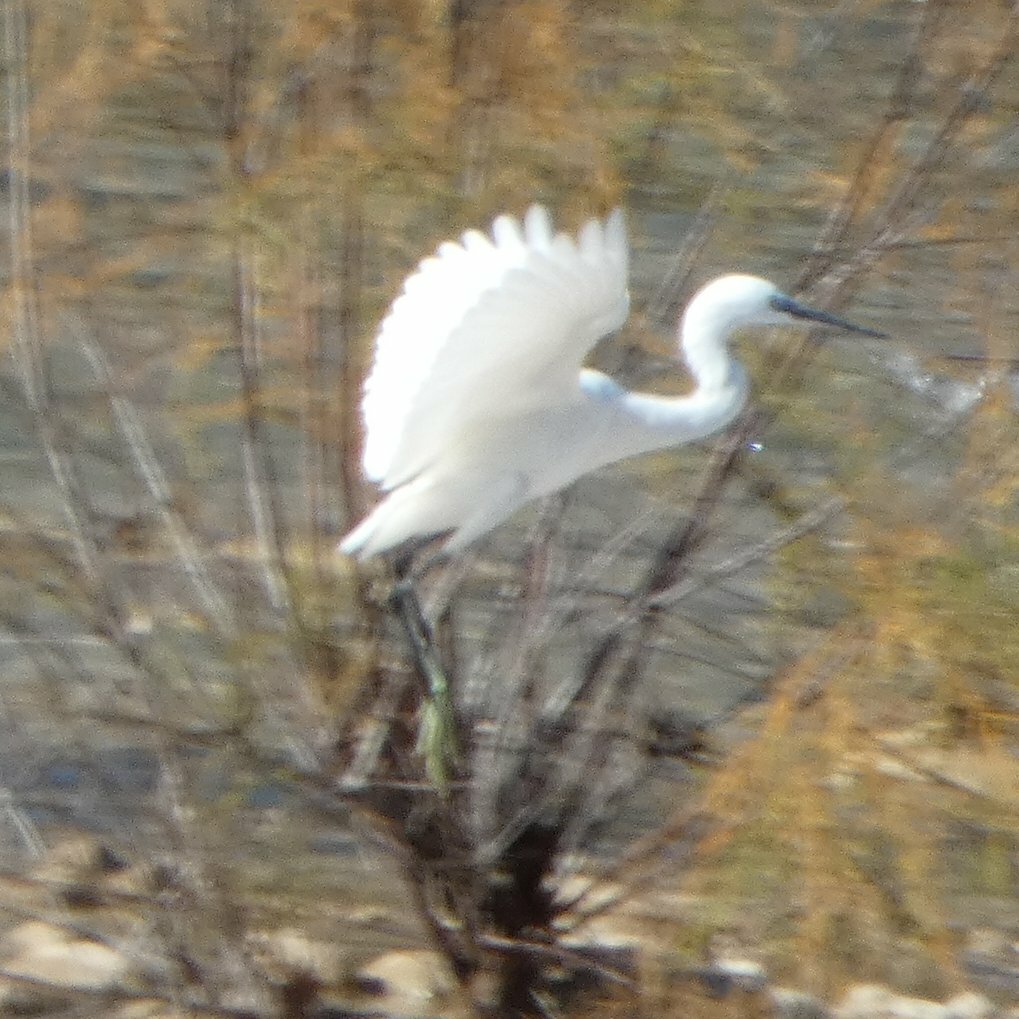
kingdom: Animalia
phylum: Chordata
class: Aves
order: Pelecaniformes
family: Ardeidae
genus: Egretta
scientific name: Egretta garzetta
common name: Little egret
